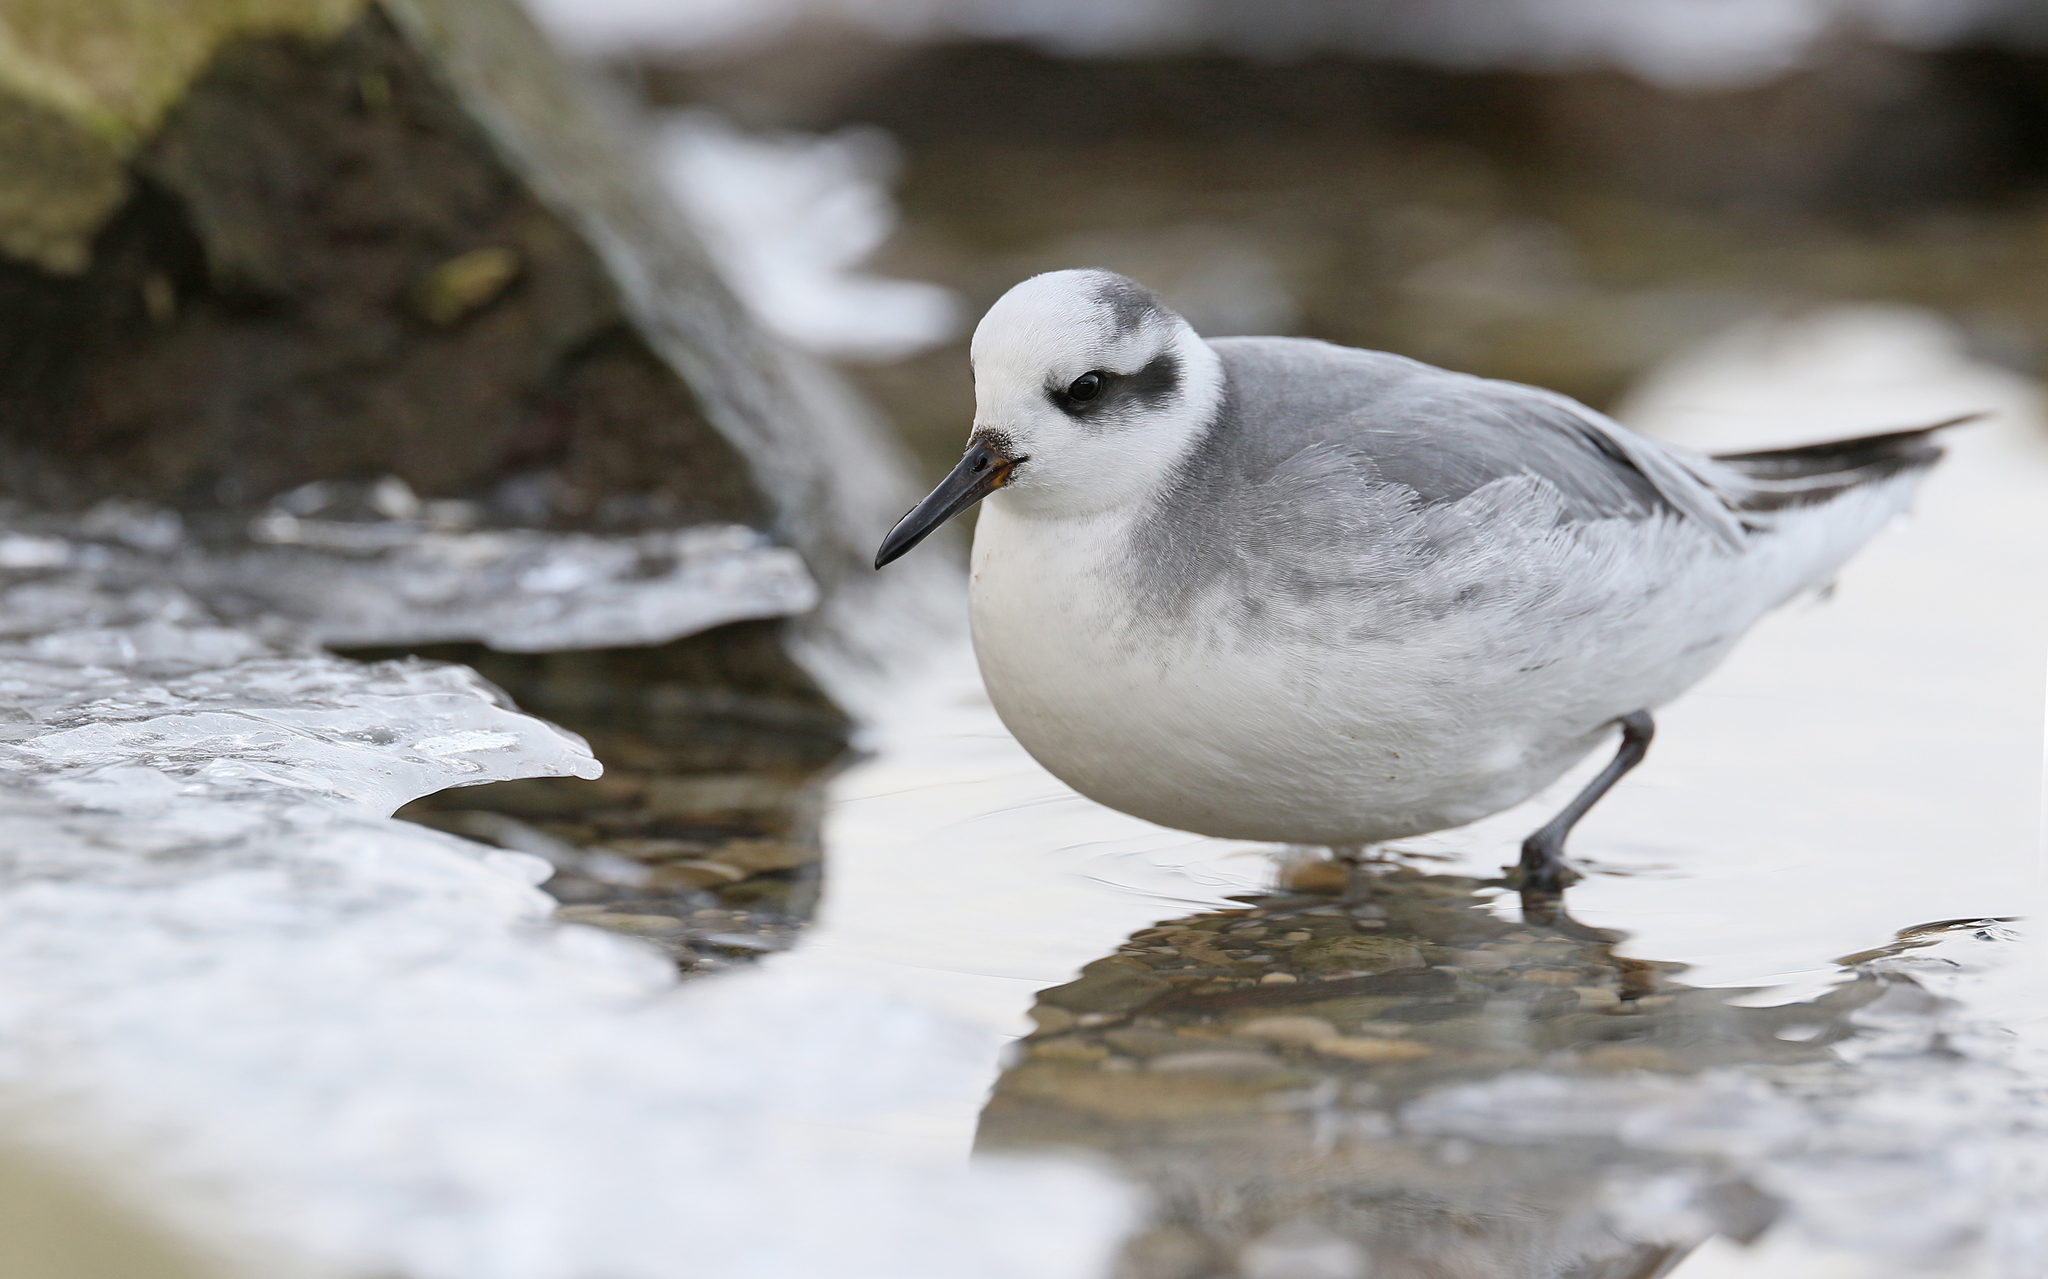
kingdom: Animalia
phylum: Chordata
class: Aves
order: Charadriiformes
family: Scolopacidae
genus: Phalaropus
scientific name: Phalaropus fulicarius
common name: Red phalarope
